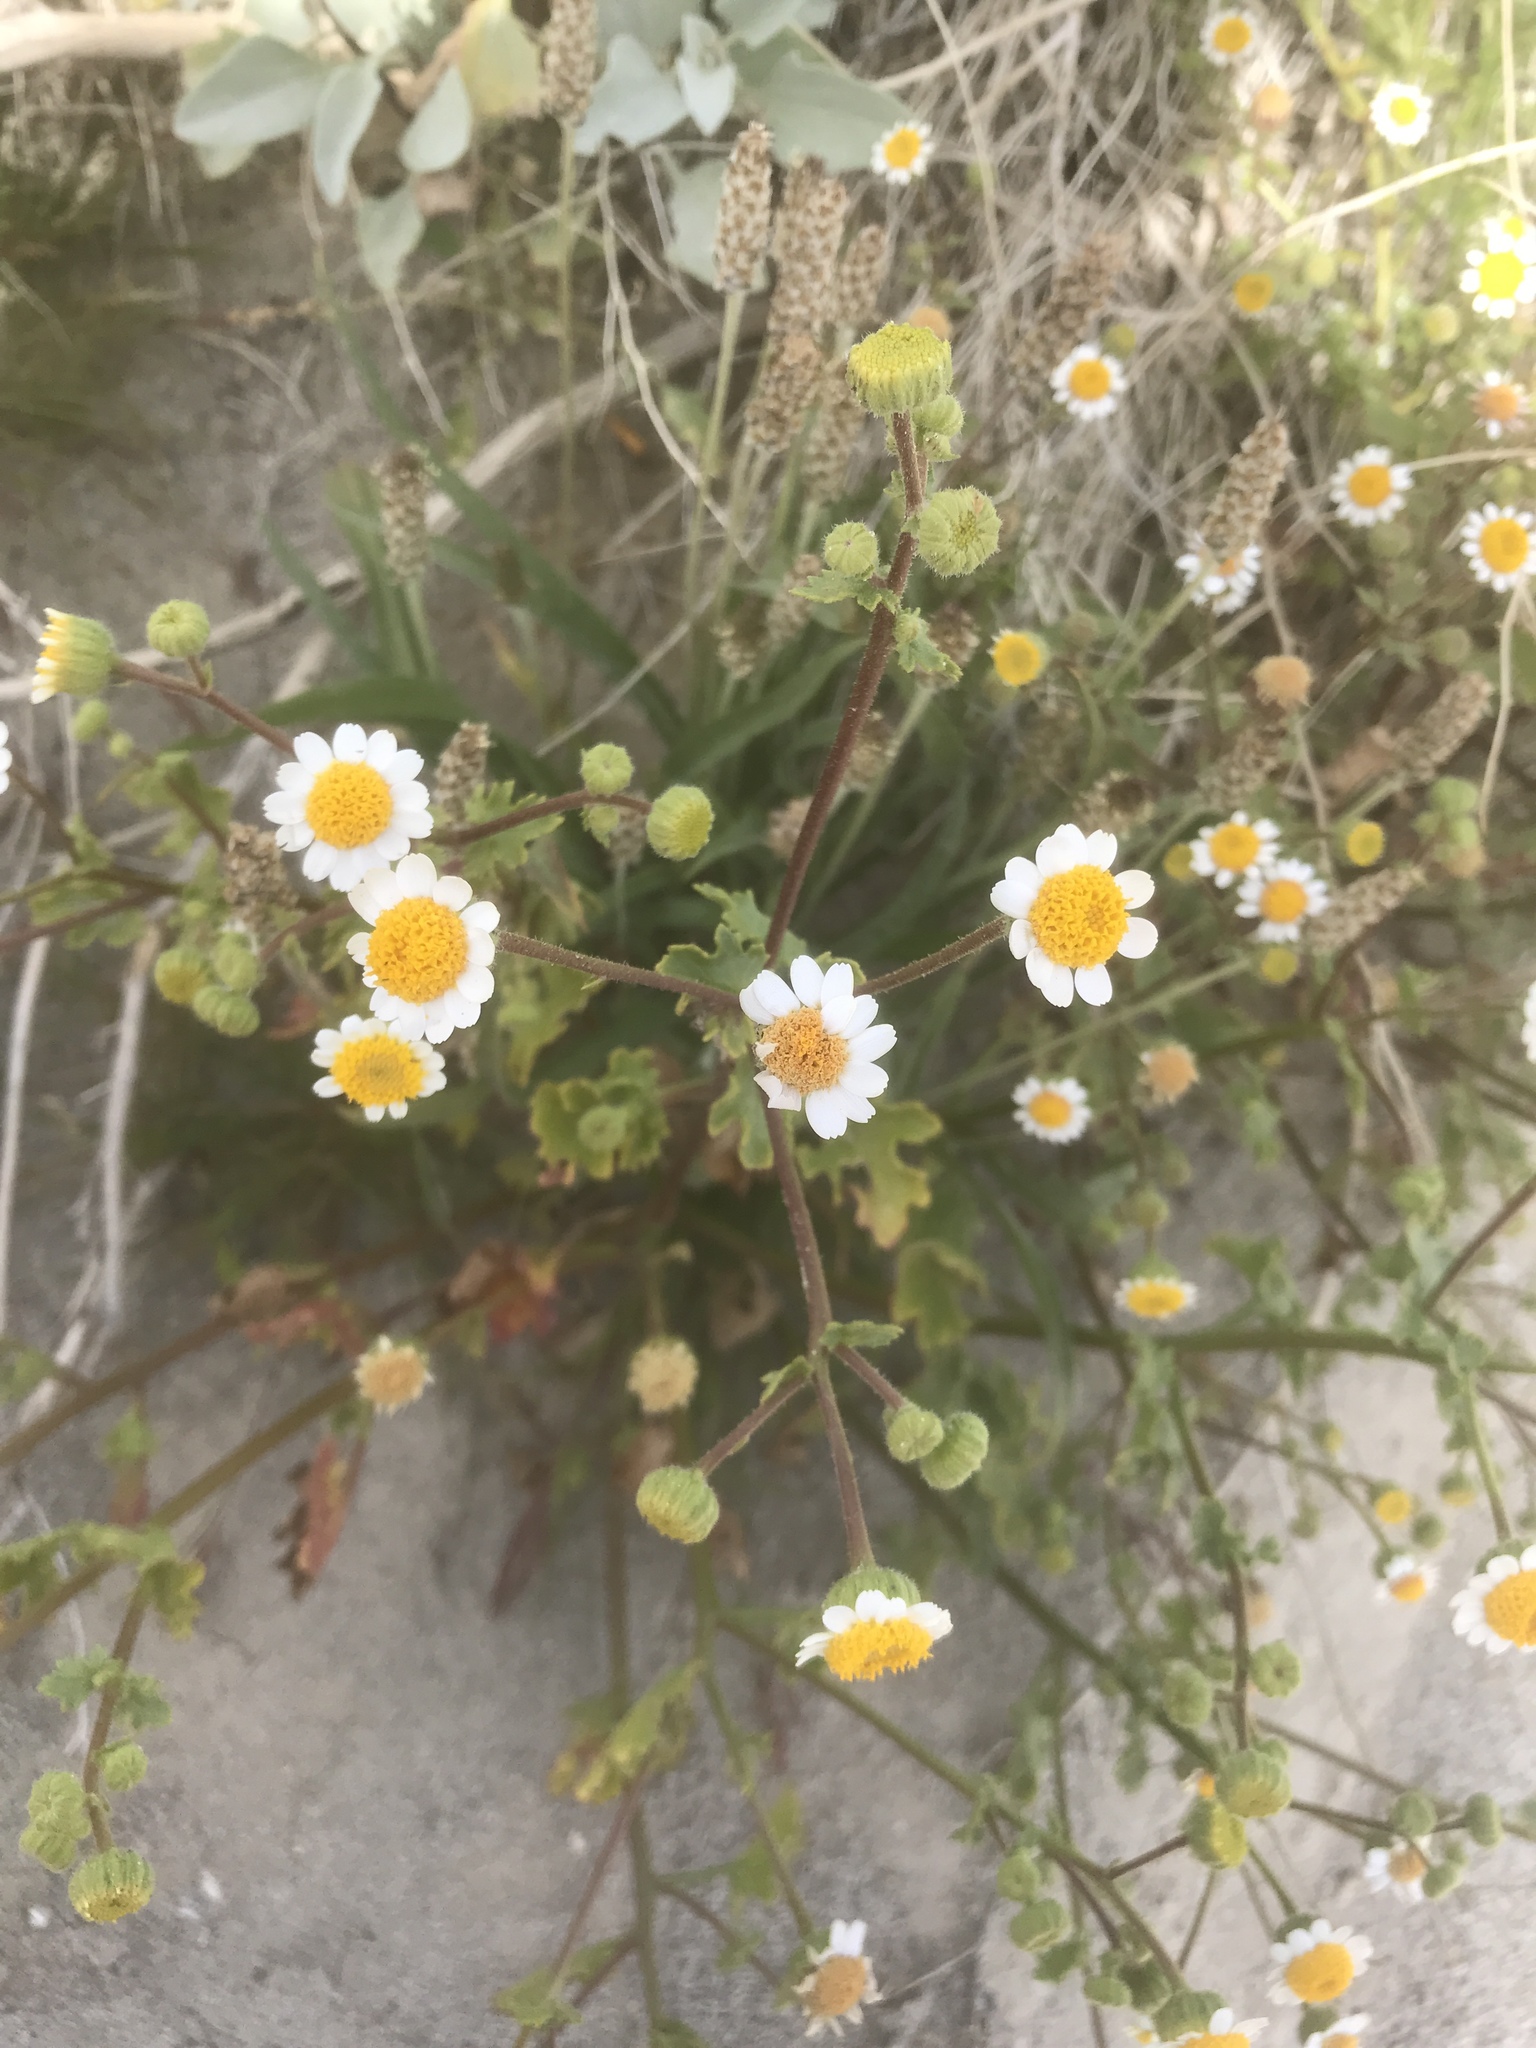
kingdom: Plantae
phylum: Tracheophyta
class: Magnoliopsida
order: Asterales
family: Asteraceae
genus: Laphamia
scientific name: Laphamia emoryi
